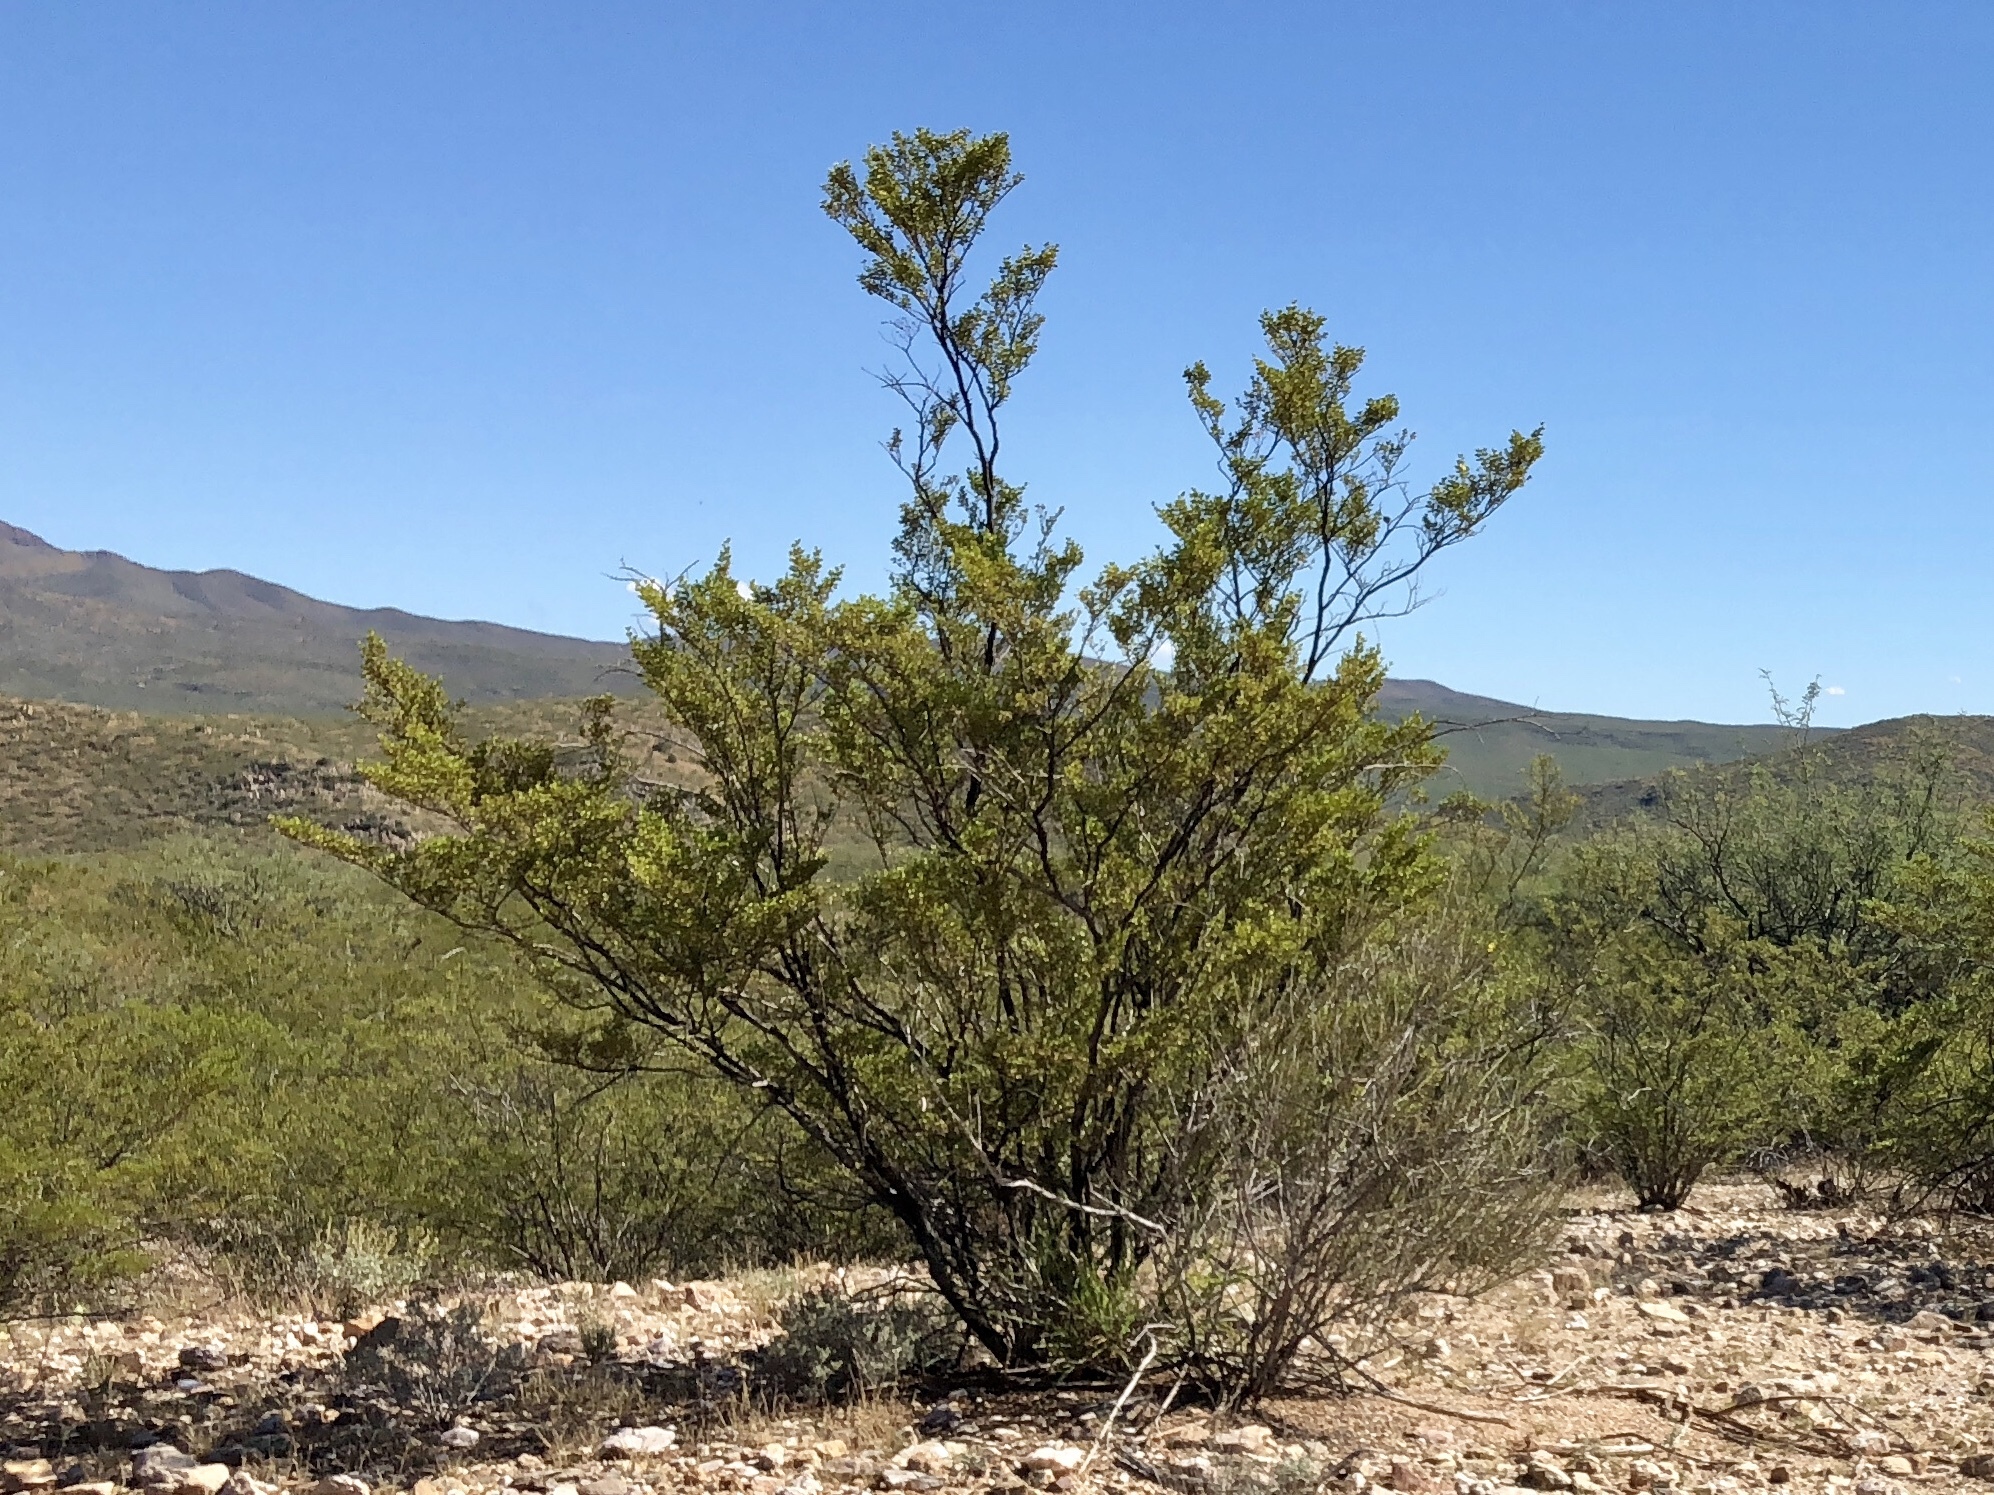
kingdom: Plantae
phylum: Tracheophyta
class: Magnoliopsida
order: Zygophyllales
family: Zygophyllaceae
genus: Larrea
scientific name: Larrea tridentata
